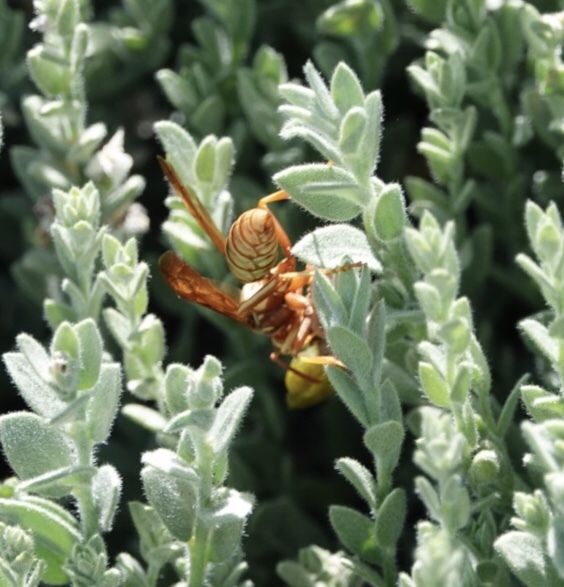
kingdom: Animalia
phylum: Arthropoda
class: Insecta
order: Hymenoptera
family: Eumenidae
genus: Polistes
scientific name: Polistes aurifer
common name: Paper wasp
